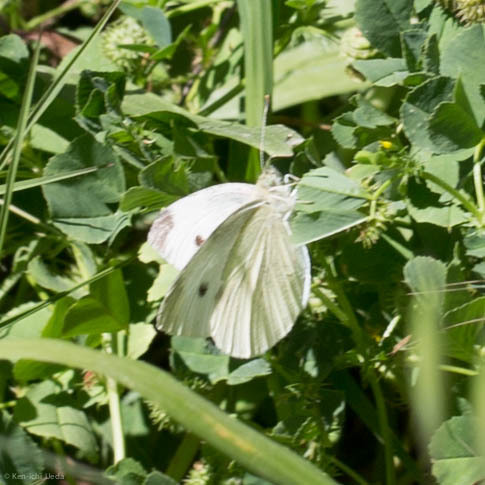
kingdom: Animalia
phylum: Arthropoda
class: Insecta
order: Lepidoptera
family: Pieridae
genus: Pieris
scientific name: Pieris rapae
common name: Small white
